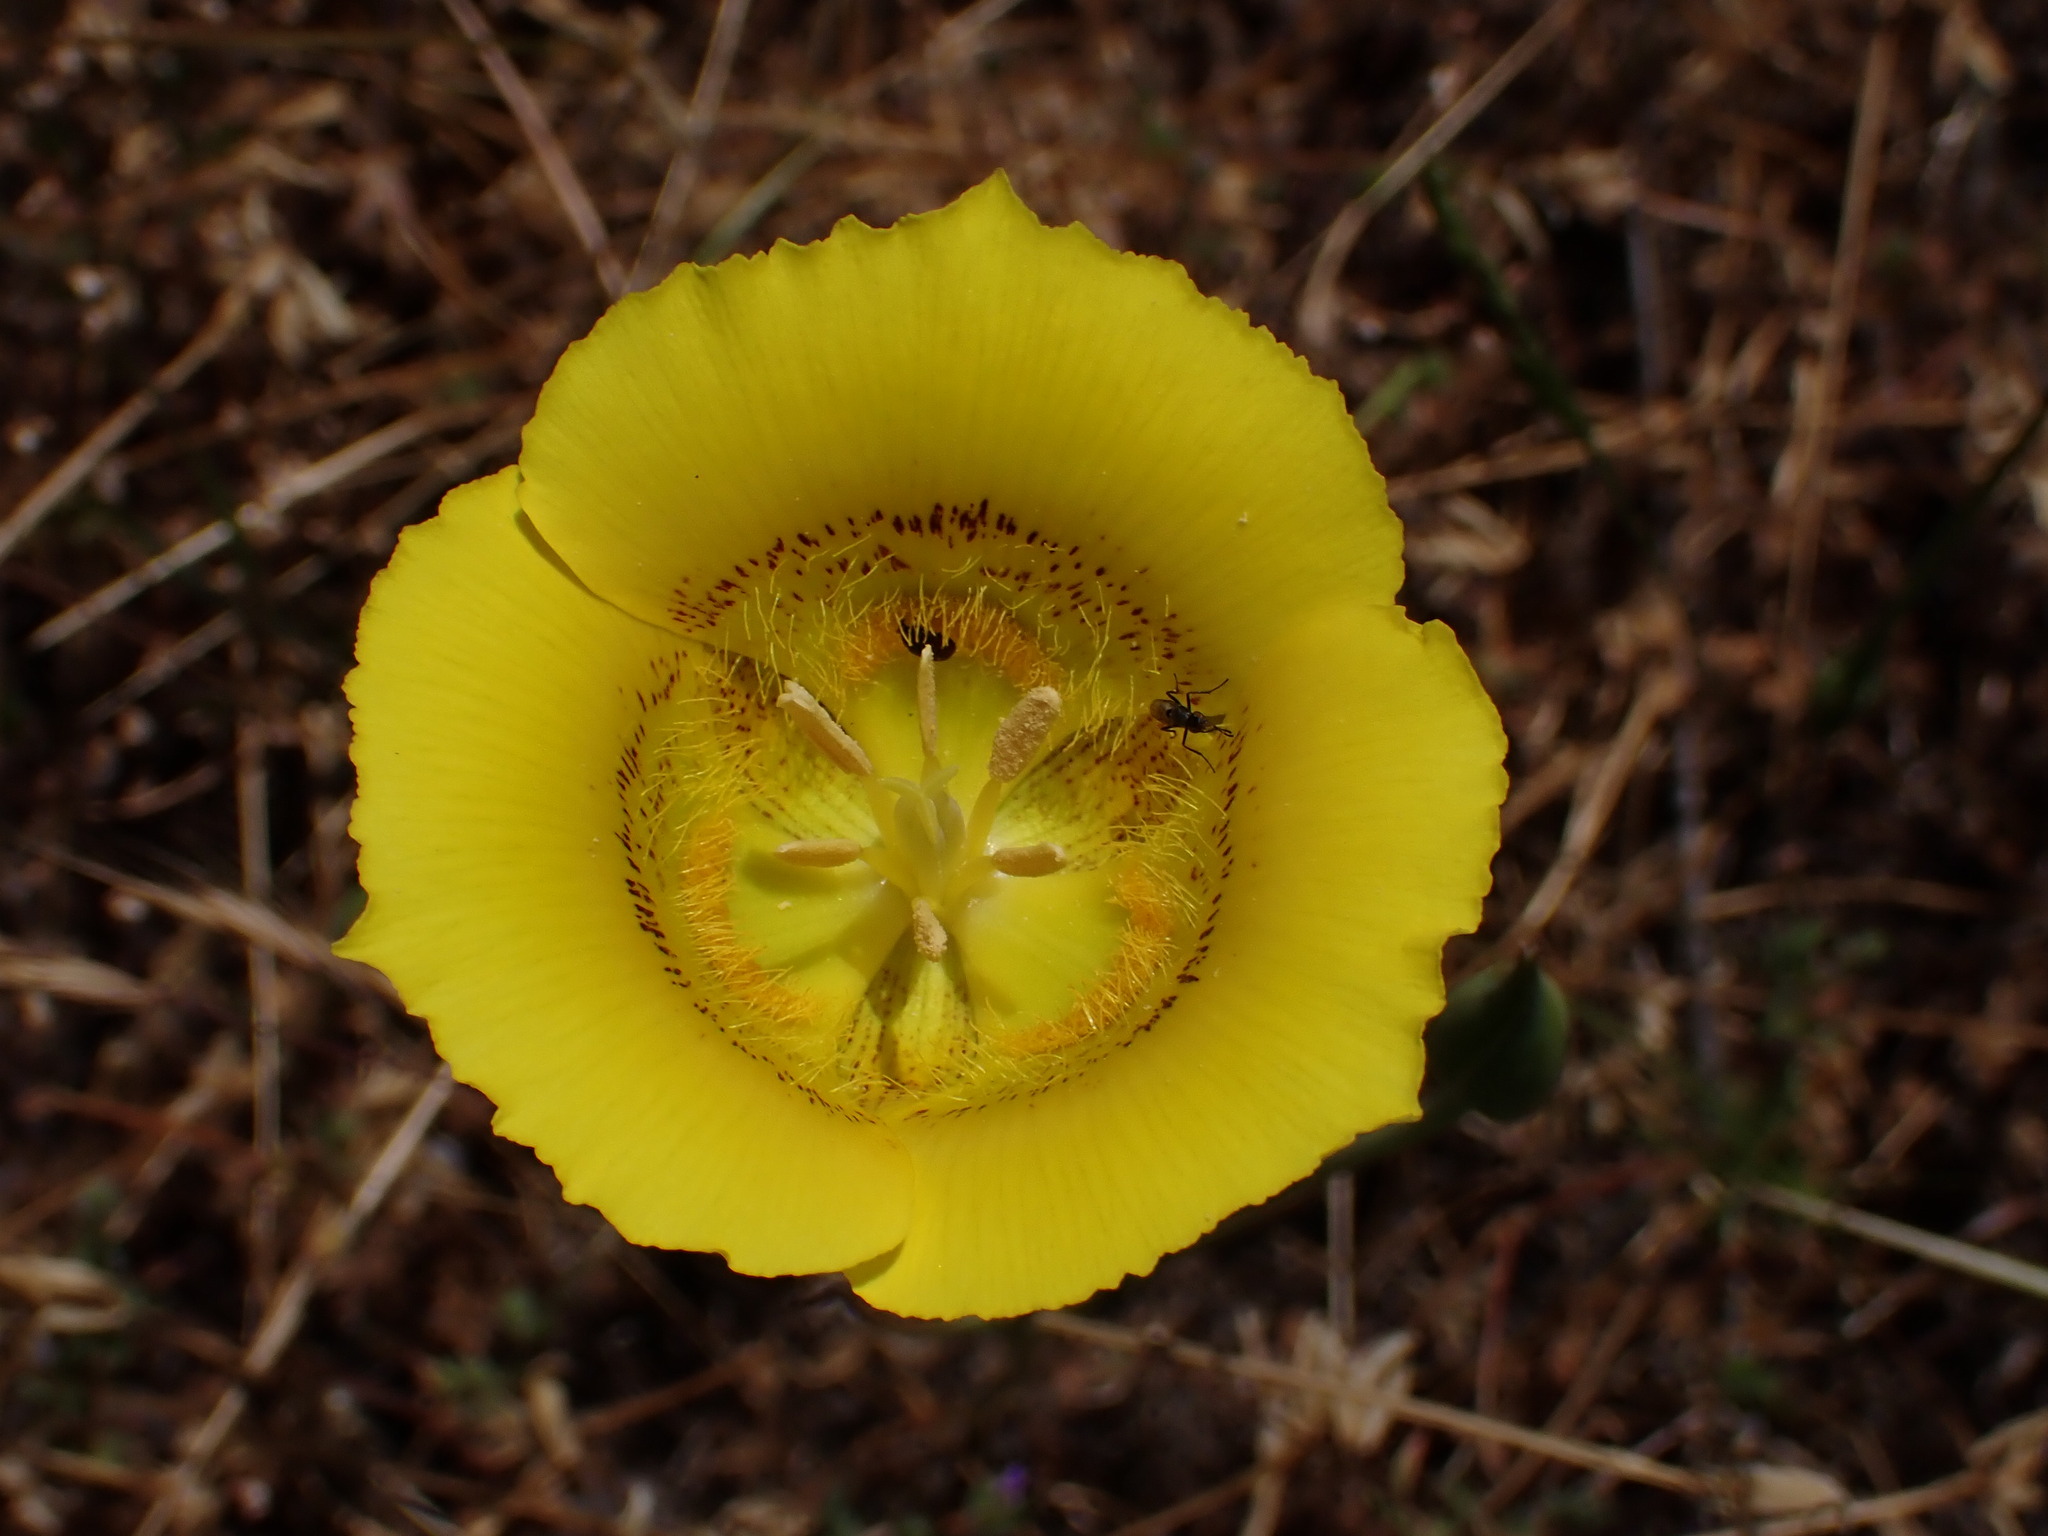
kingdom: Plantae
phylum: Tracheophyta
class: Liliopsida
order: Liliales
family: Liliaceae
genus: Calochortus
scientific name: Calochortus luteus
